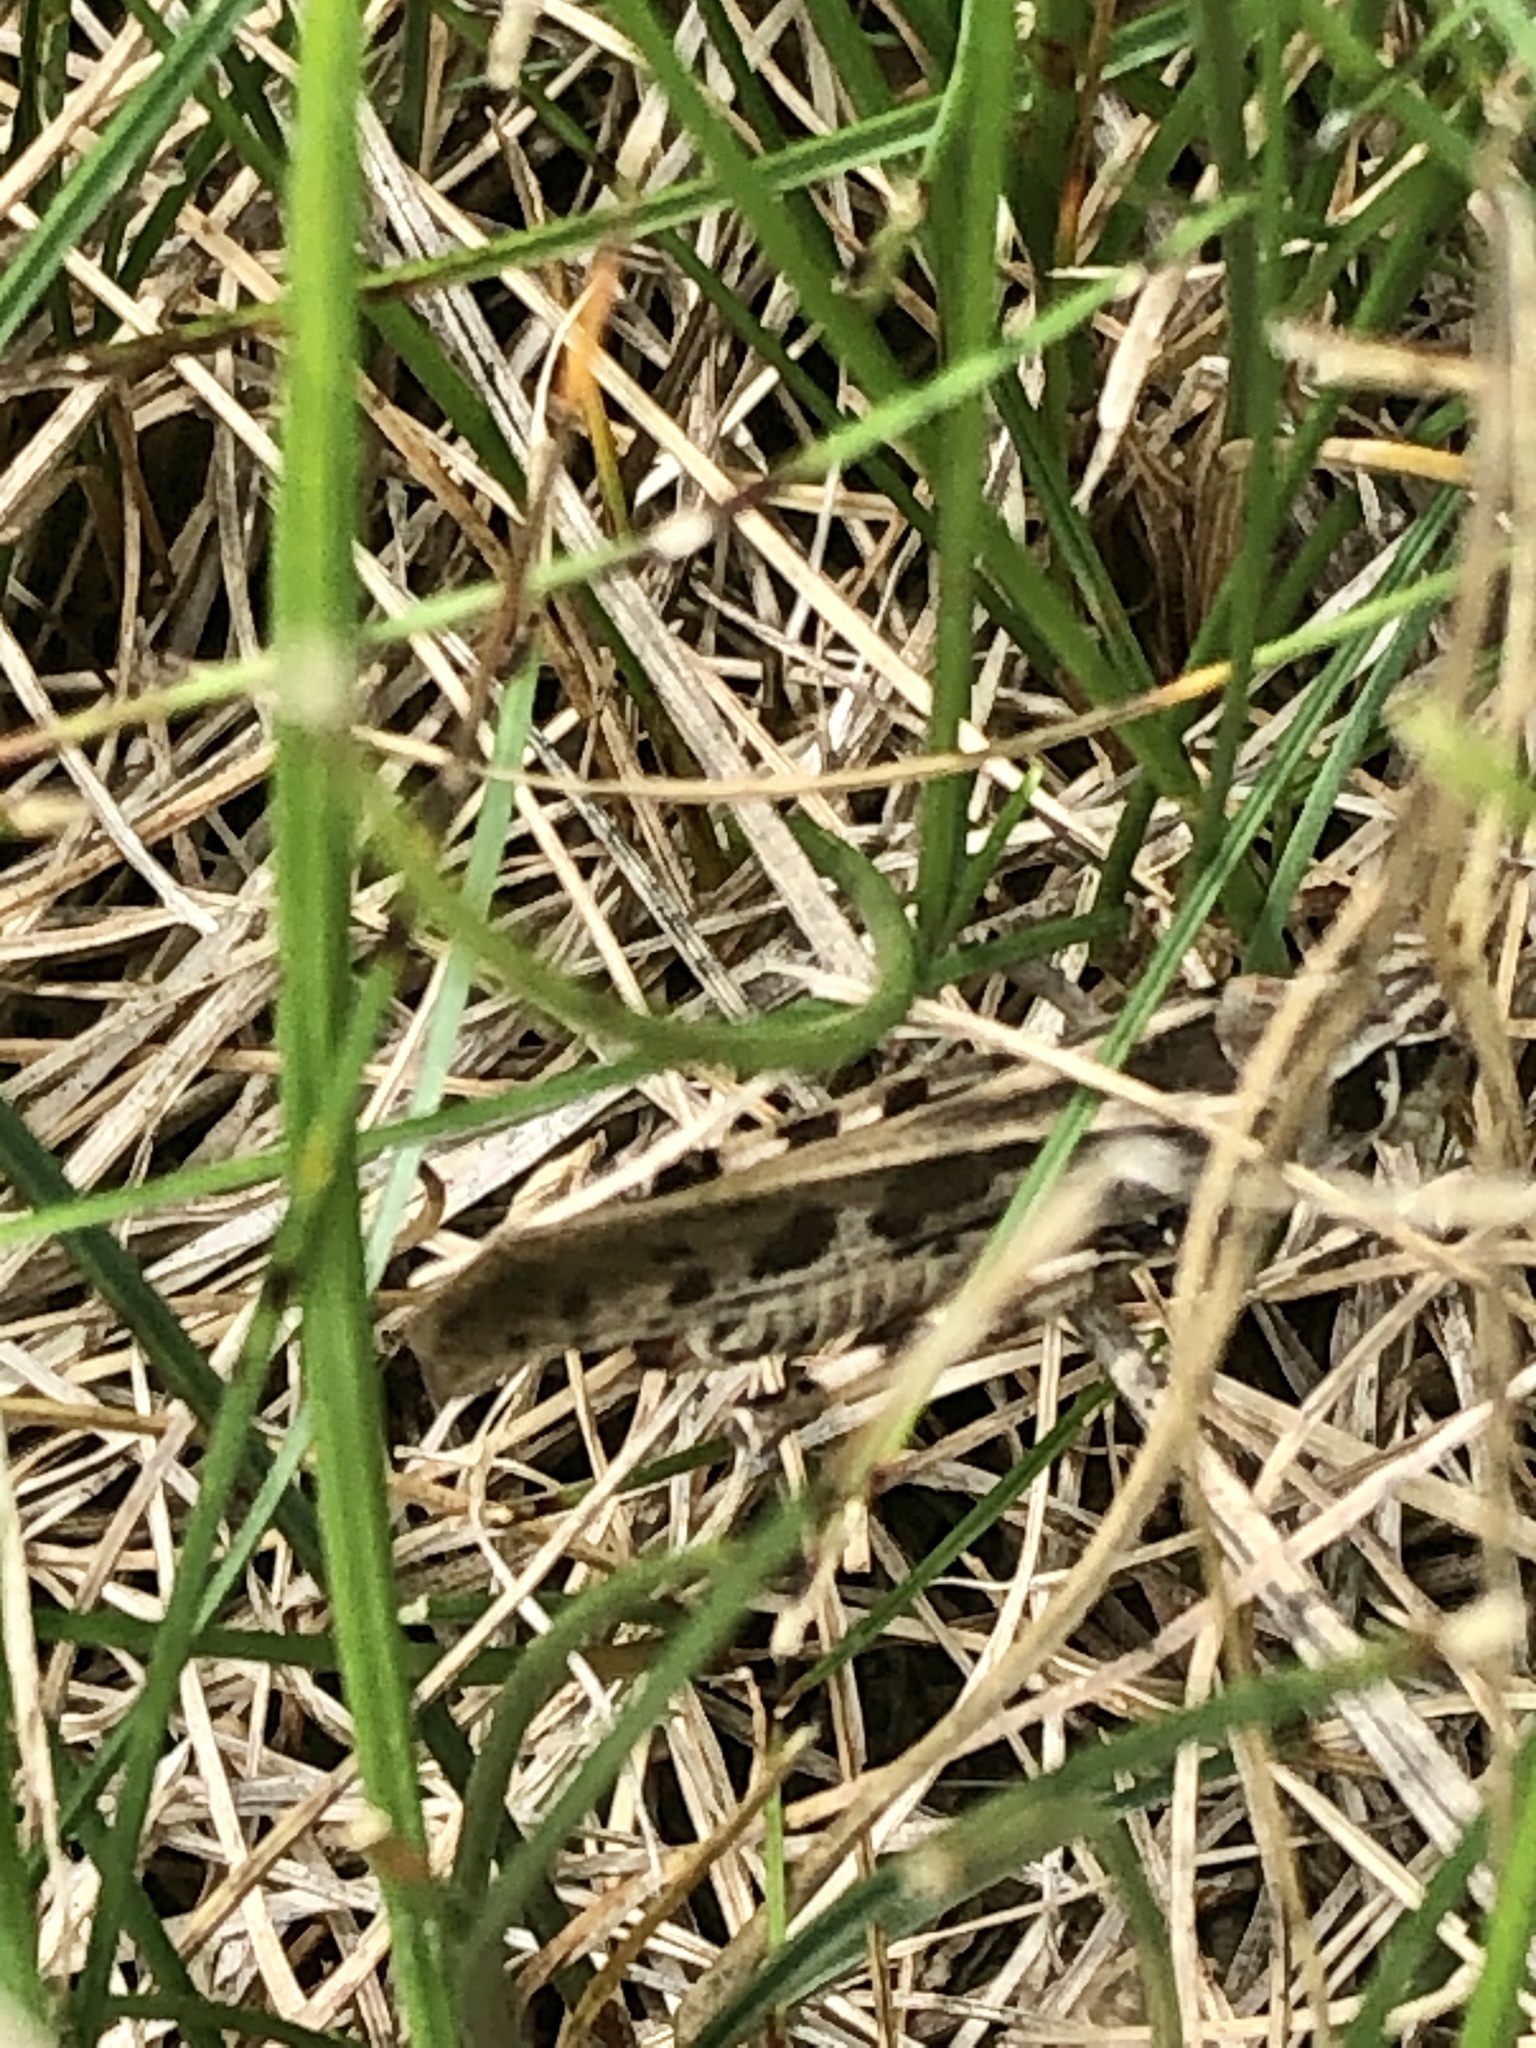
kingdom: Animalia
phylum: Arthropoda
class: Insecta
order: Orthoptera
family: Acrididae
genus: Camnula
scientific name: Camnula pellucida
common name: Clear-winged grasshopper
